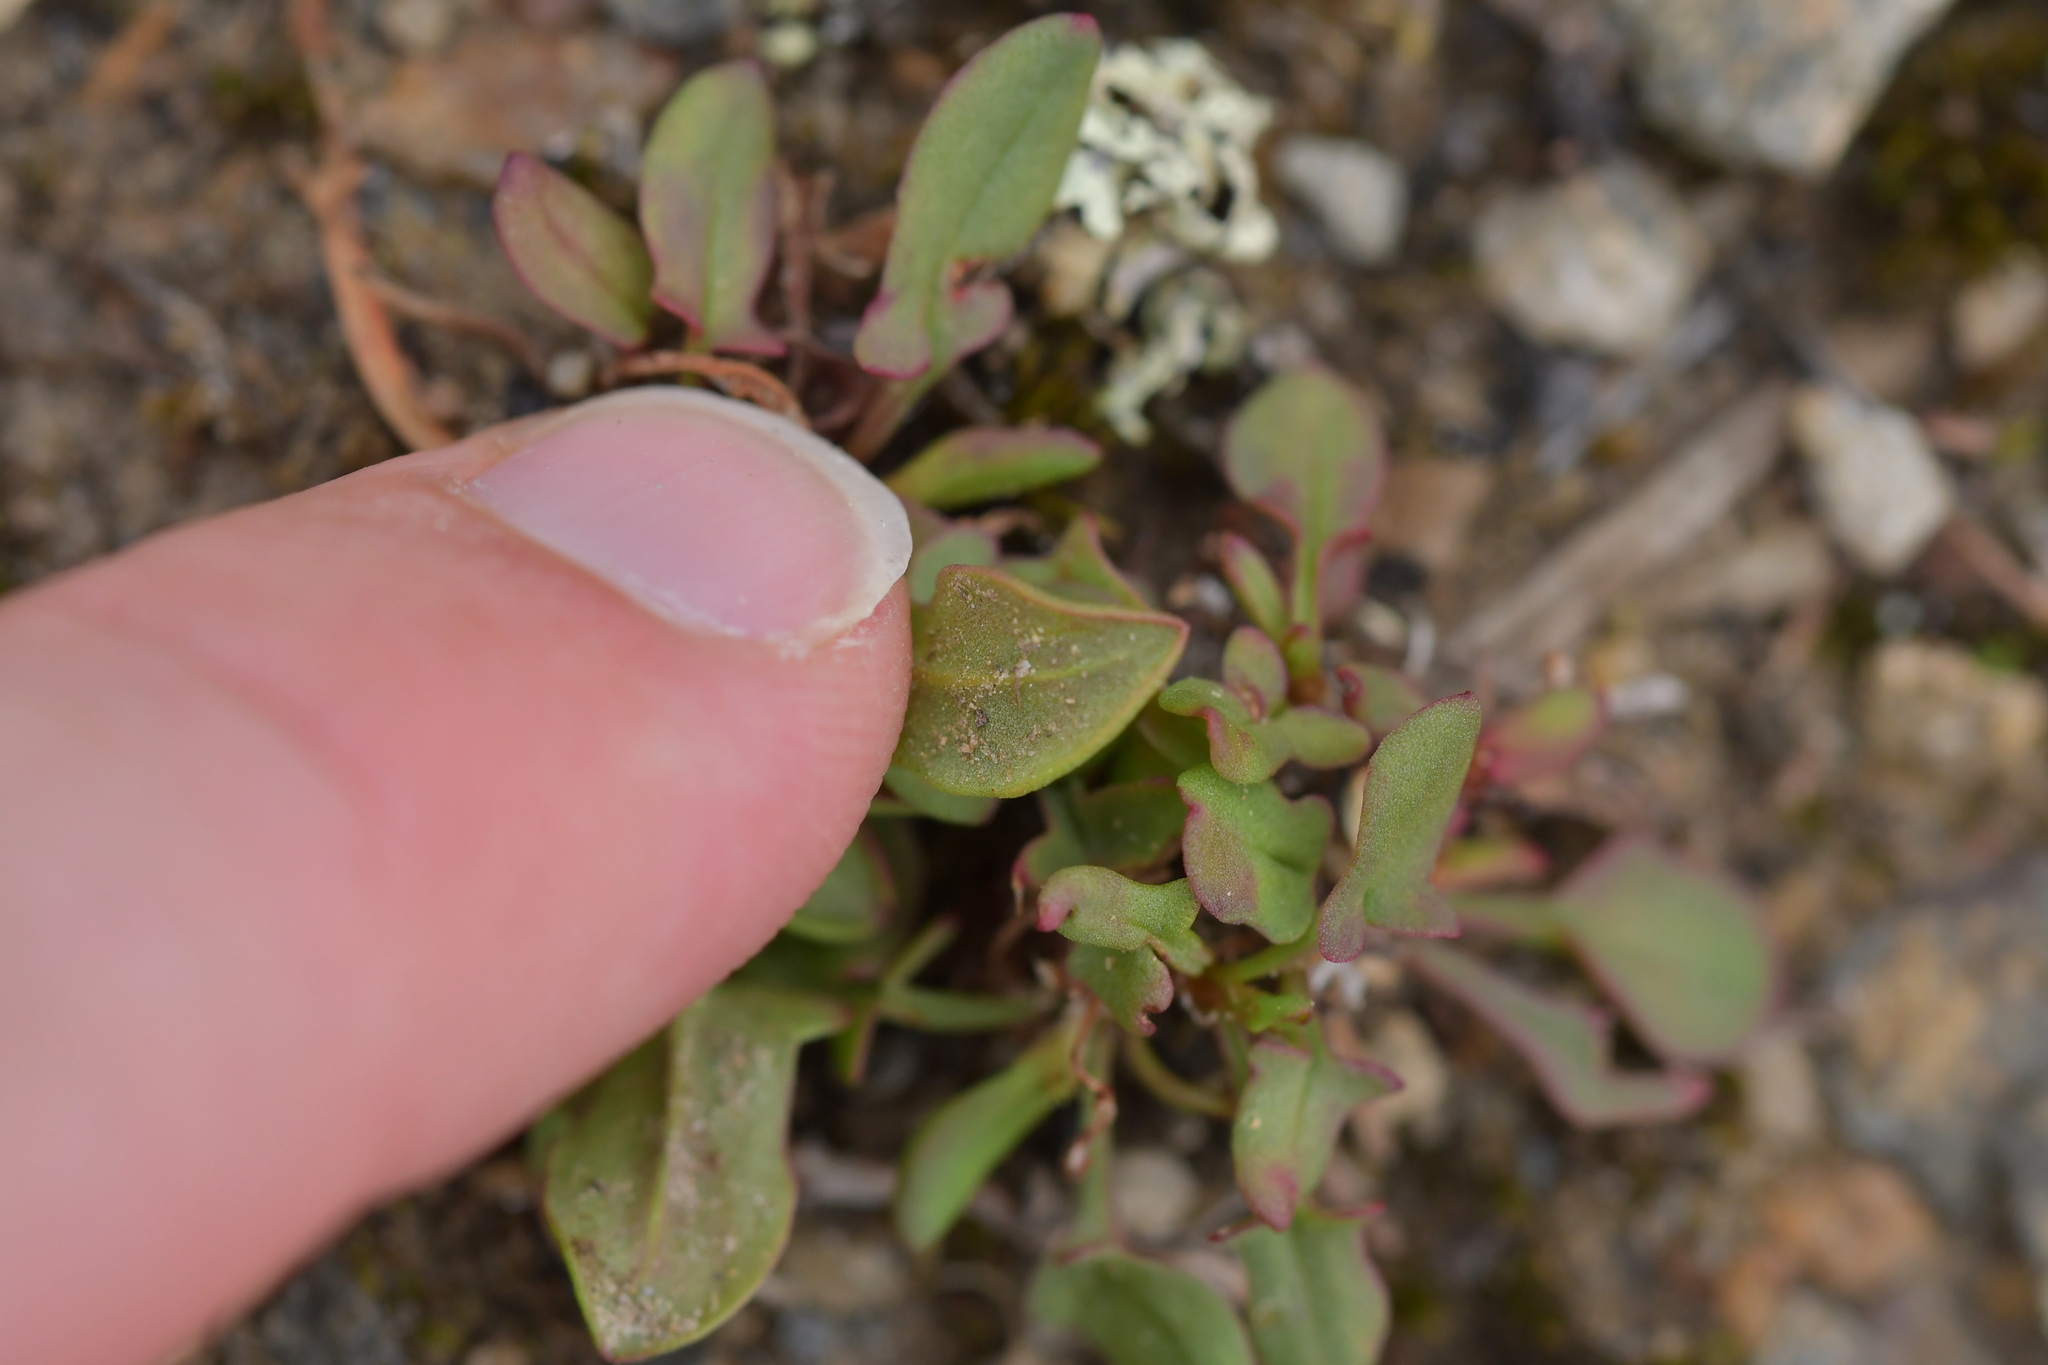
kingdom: Plantae
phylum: Tracheophyta
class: Magnoliopsida
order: Caryophyllales
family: Polygonaceae
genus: Rumex
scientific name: Rumex acetosella
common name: Common sheep sorrel
